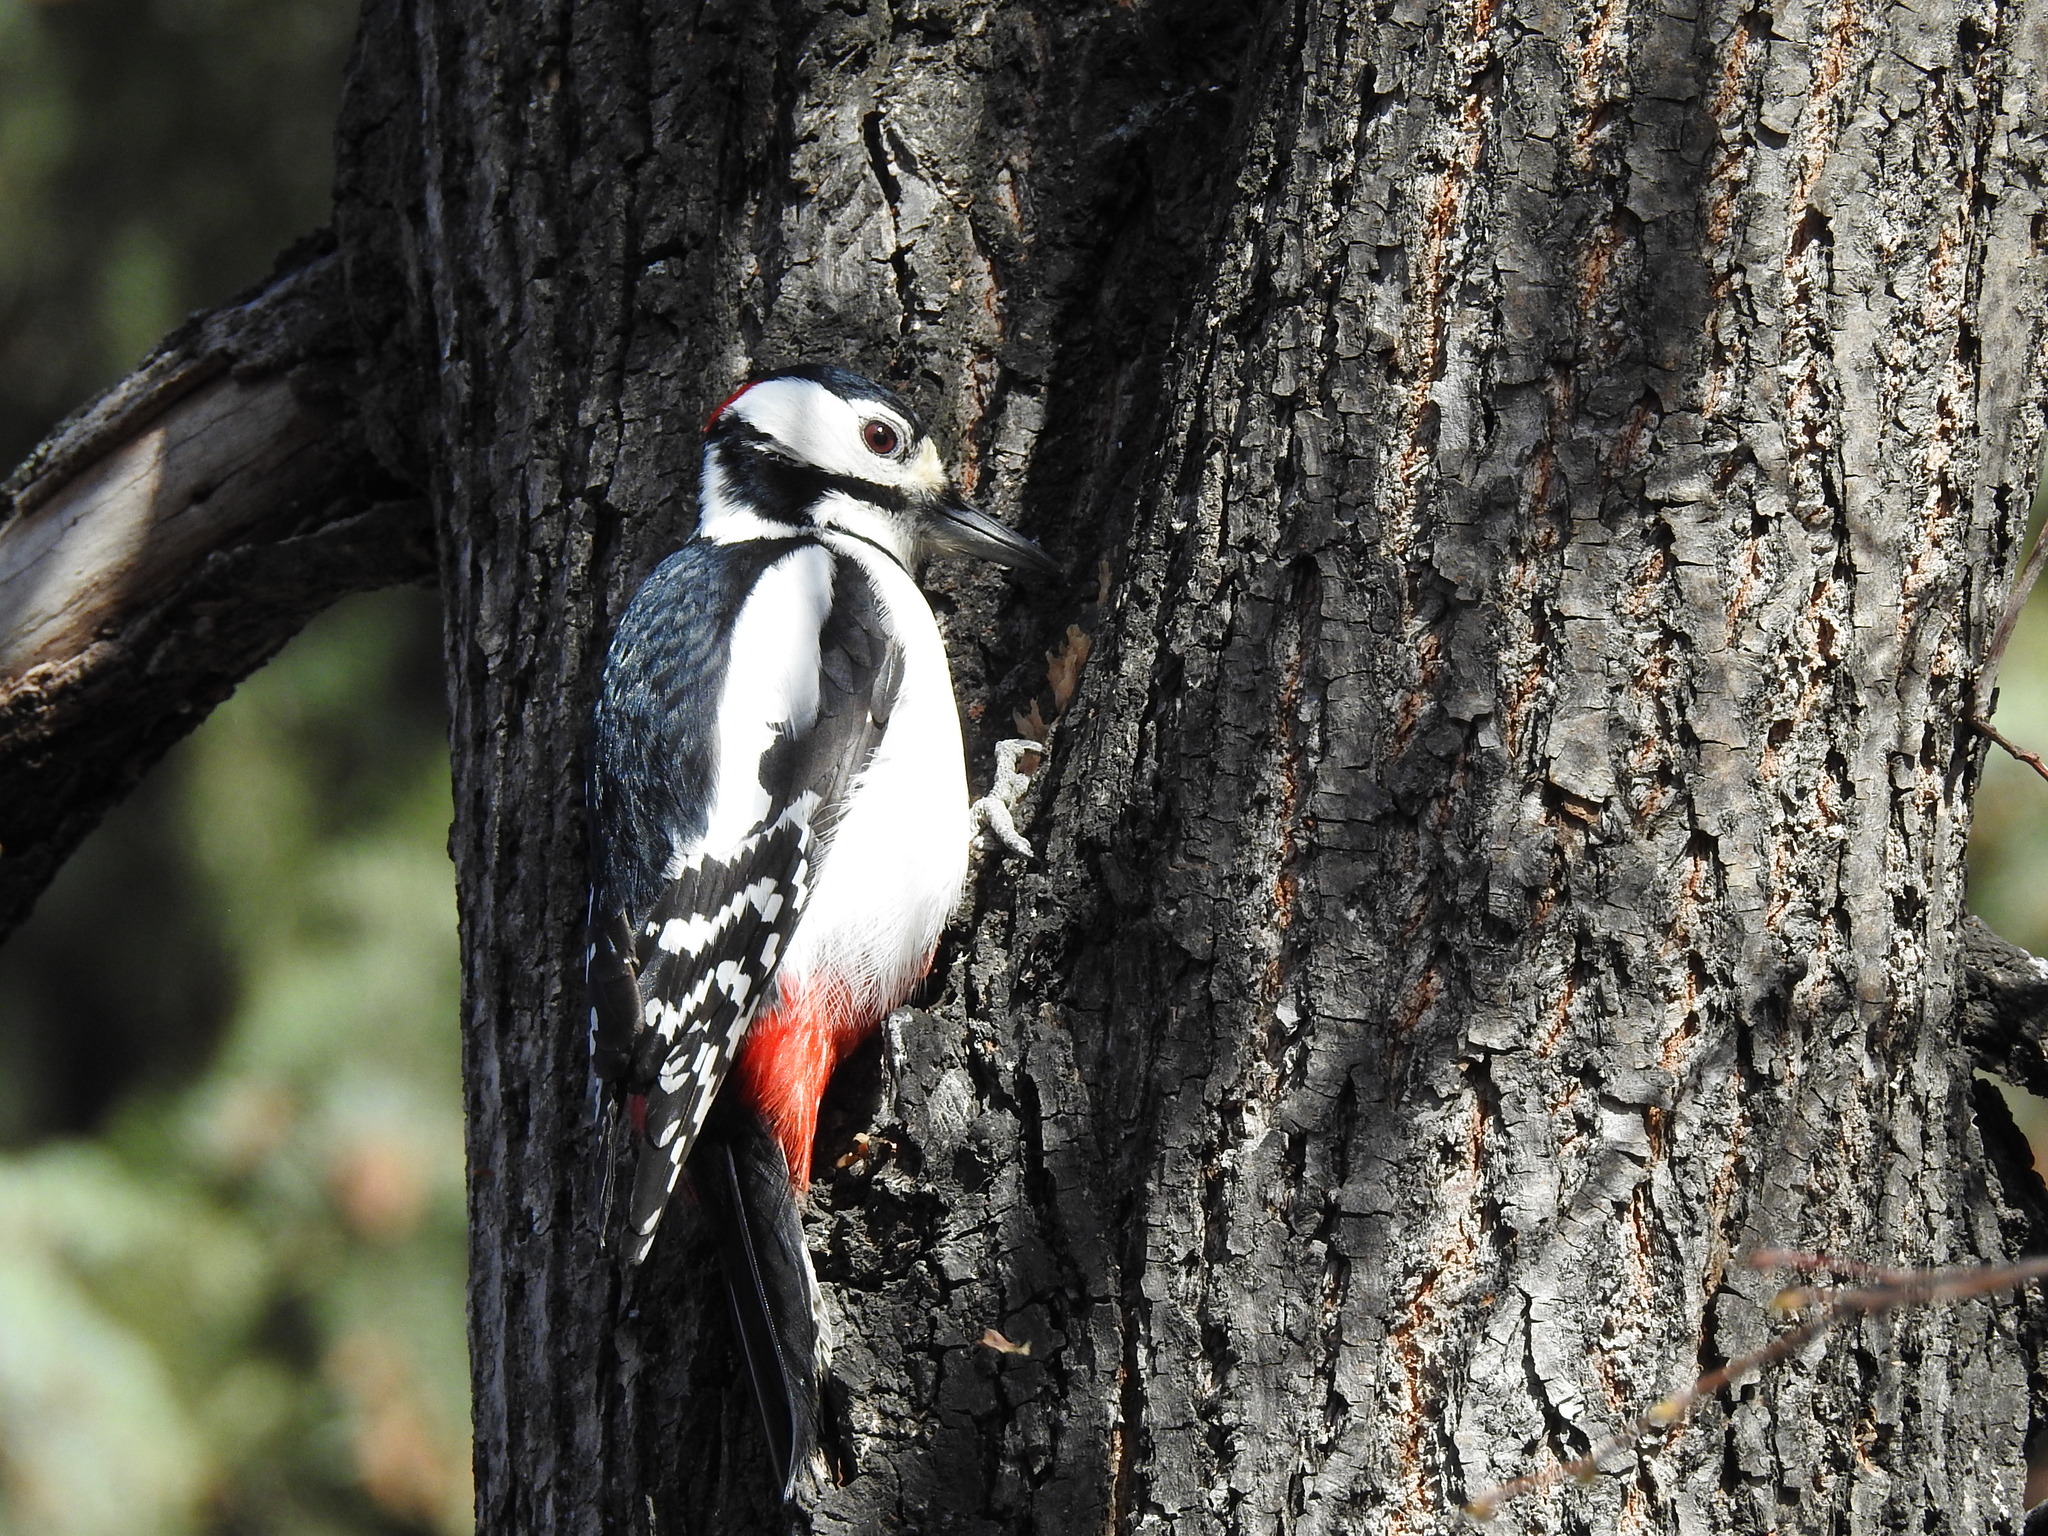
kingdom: Animalia
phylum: Chordata
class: Aves
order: Piciformes
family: Picidae
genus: Dendrocopos
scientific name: Dendrocopos major
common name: Great spotted woodpecker
